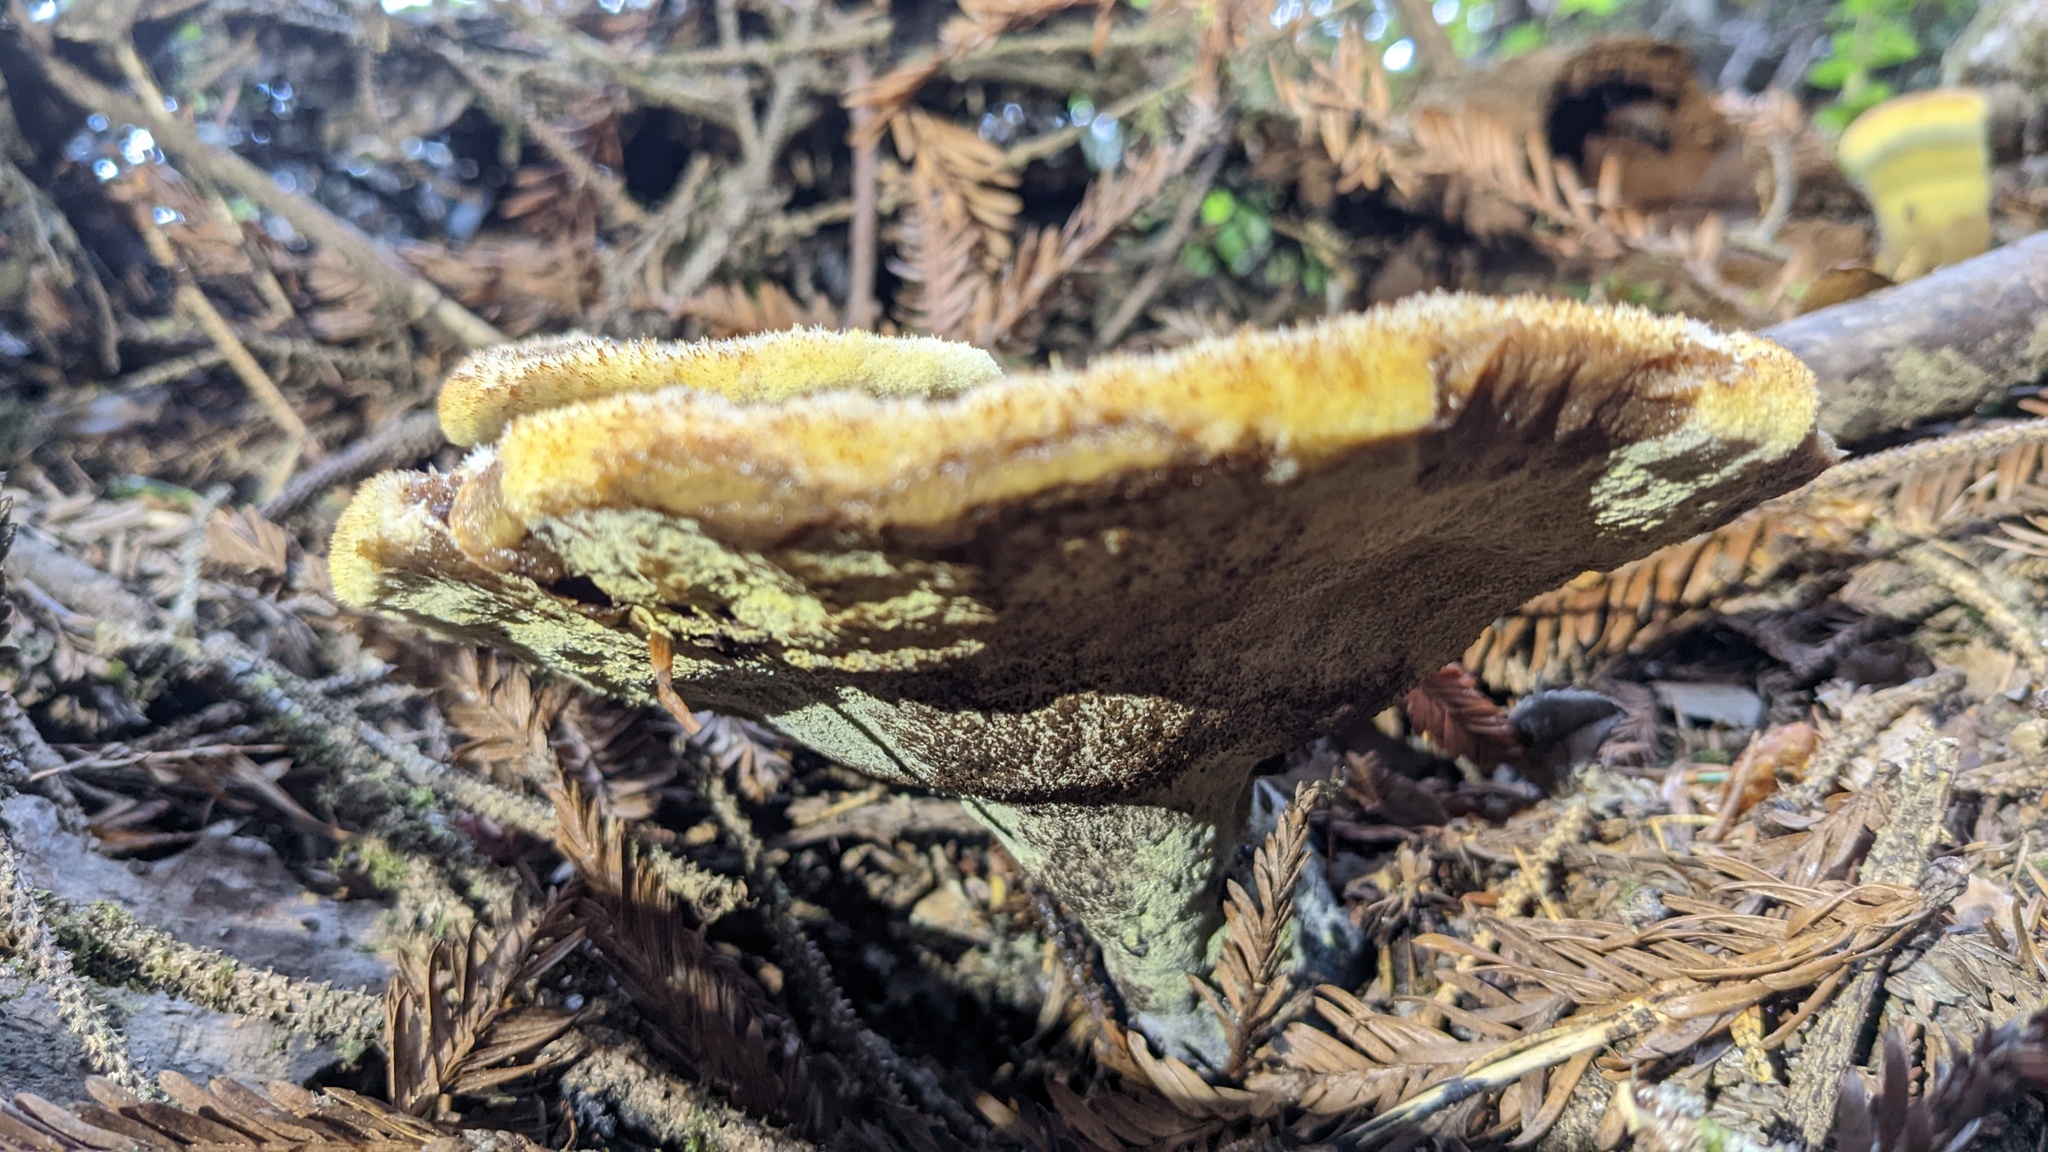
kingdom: Fungi
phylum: Basidiomycota
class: Agaricomycetes
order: Polyporales
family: Laetiporaceae
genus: Phaeolus
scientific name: Phaeolus schweinitzii
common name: Dyer's mazegill
